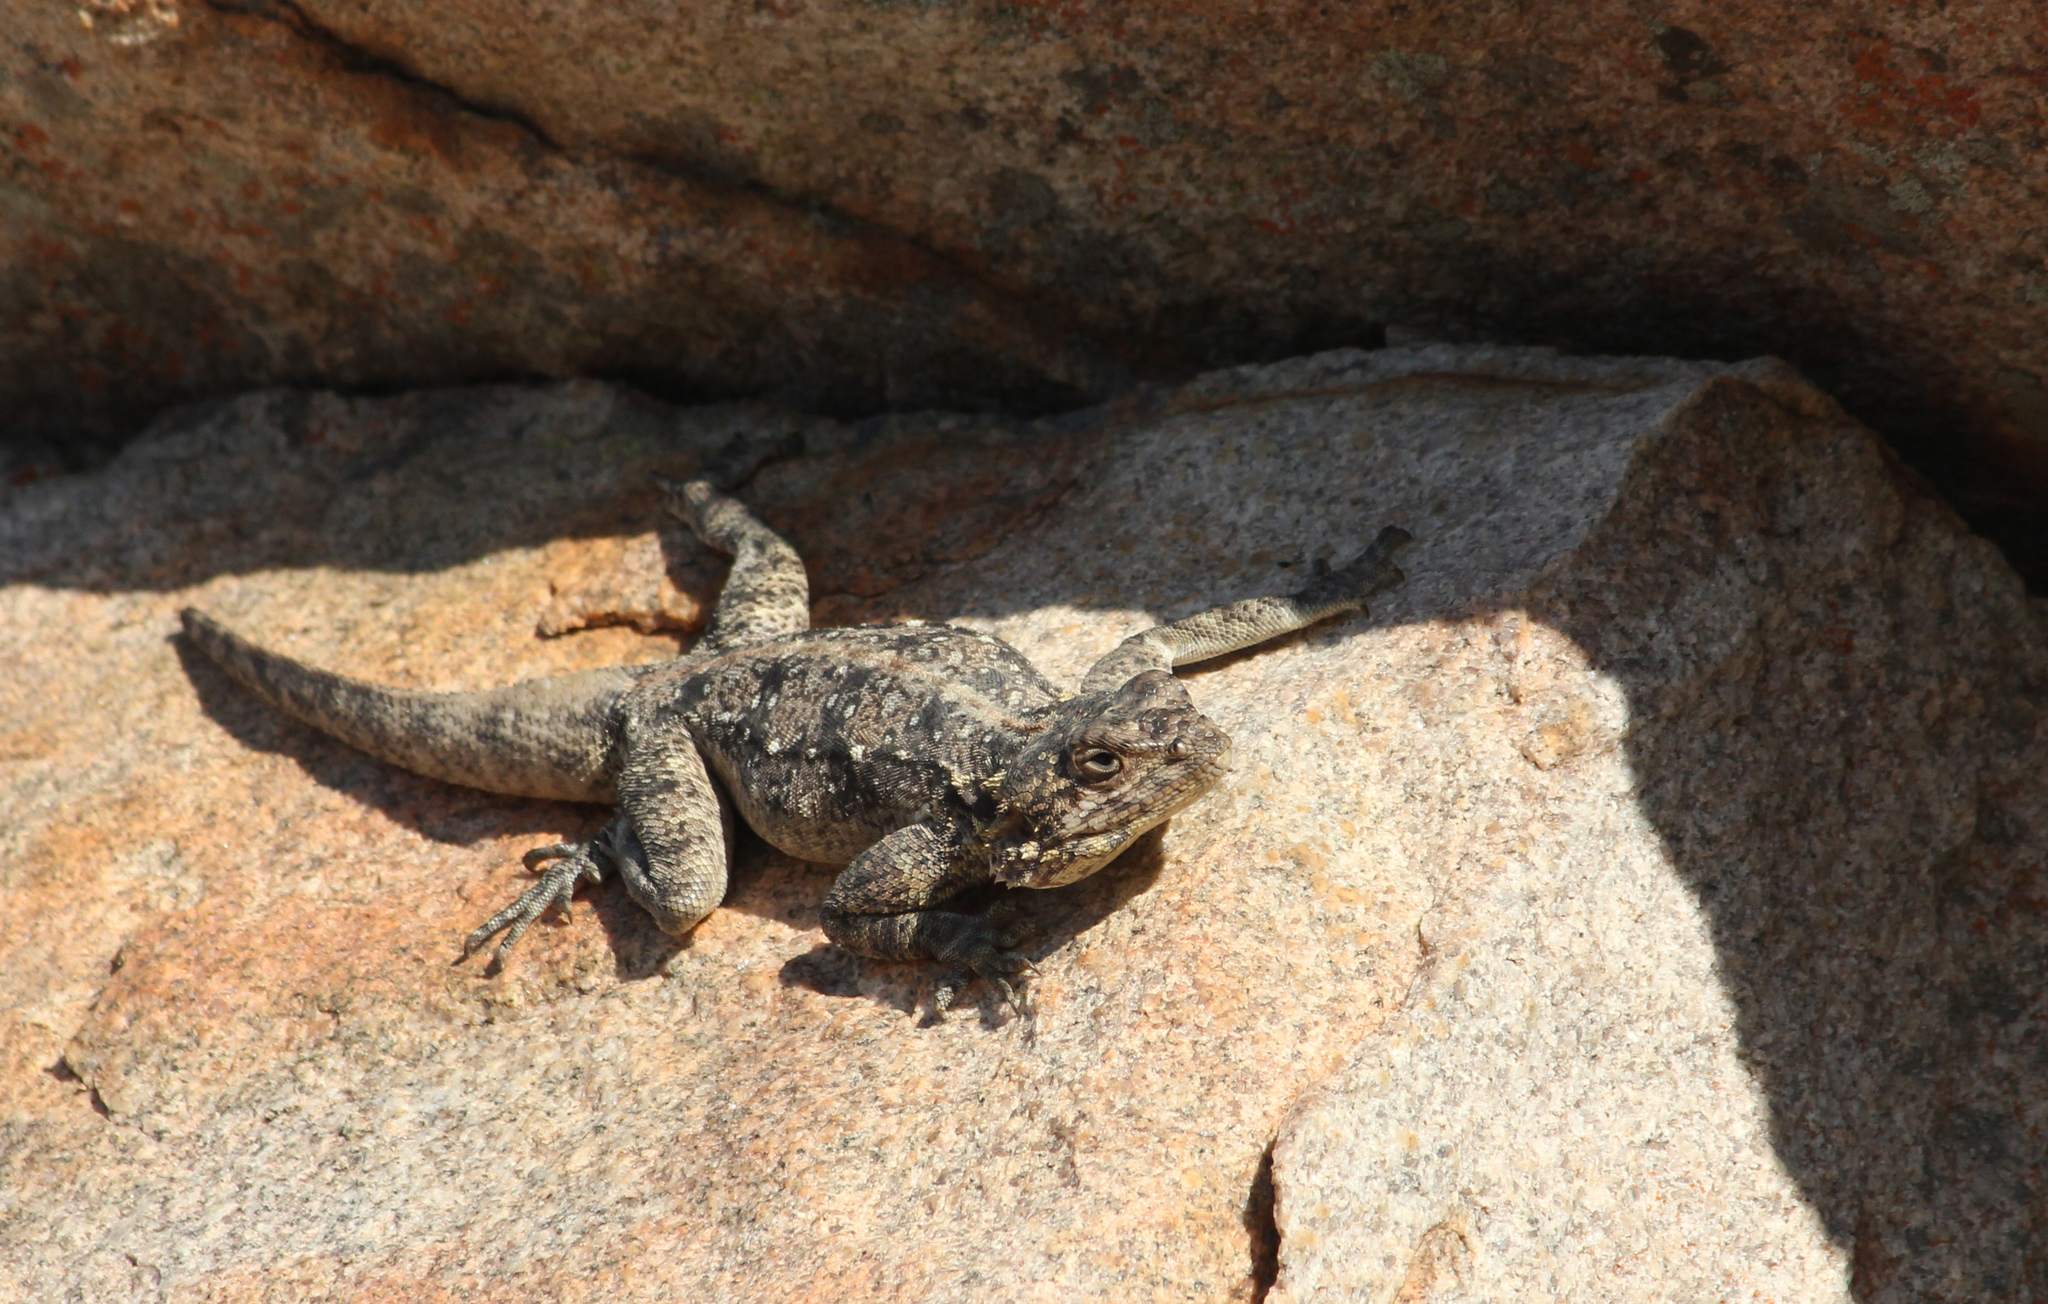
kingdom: Animalia
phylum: Chordata
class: Squamata
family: Agamidae
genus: Agama
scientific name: Agama atra
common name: Southern african rock agama
